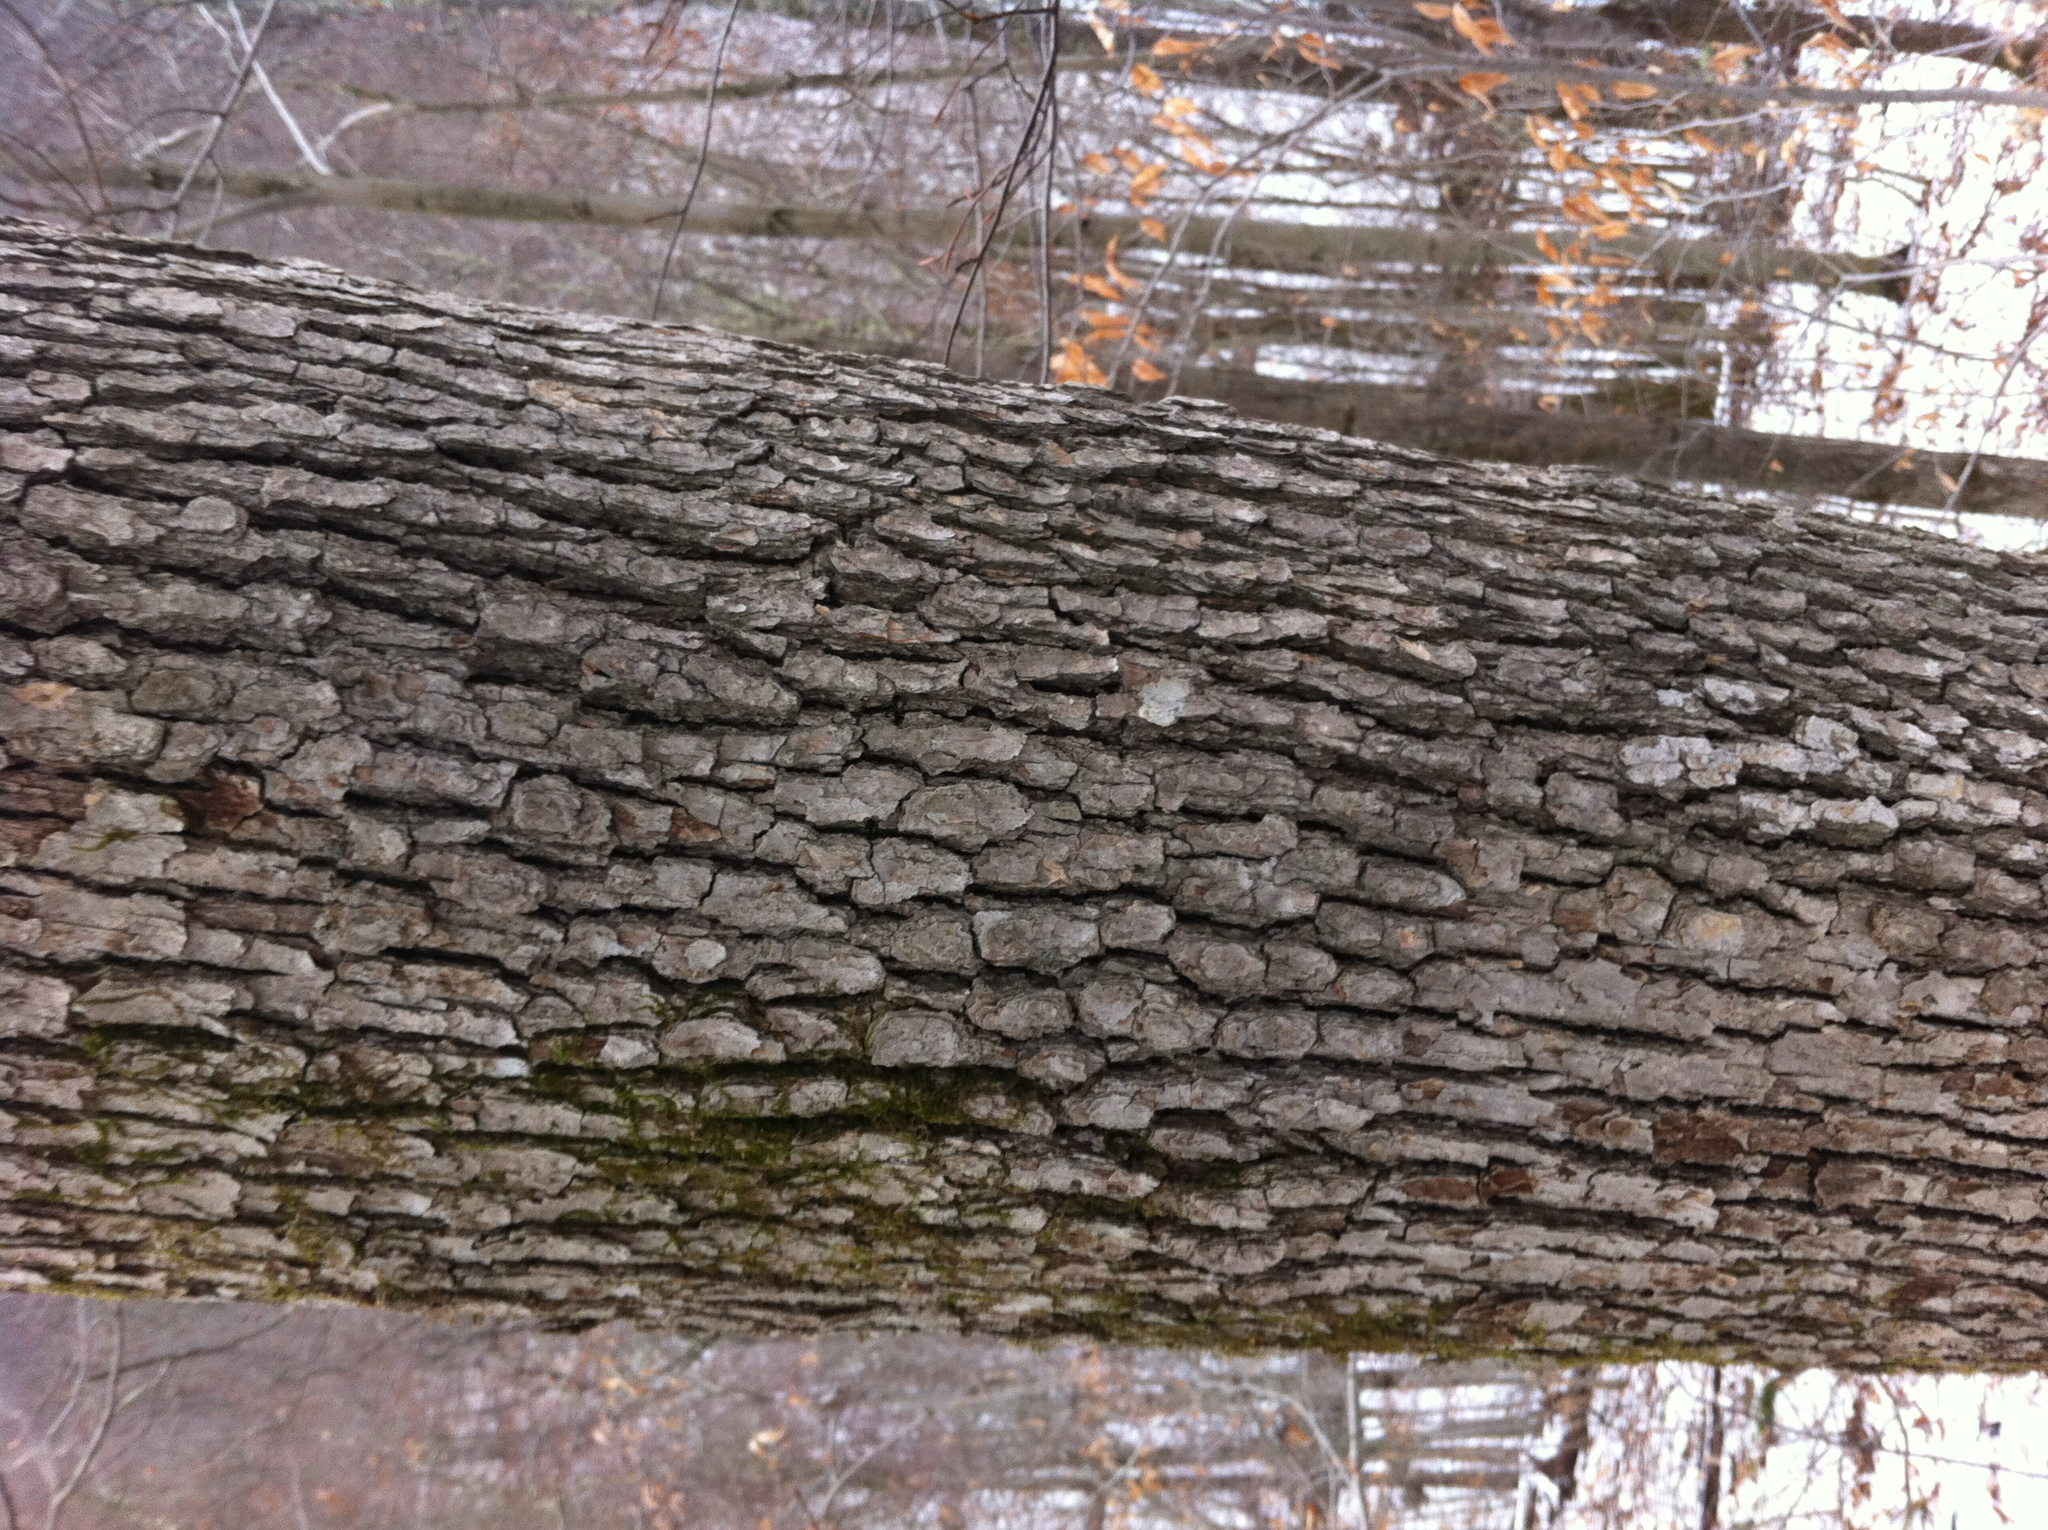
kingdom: Plantae
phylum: Tracheophyta
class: Magnoliopsida
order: Fagales
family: Fagaceae
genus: Quercus
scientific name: Quercus alba
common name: White oak
